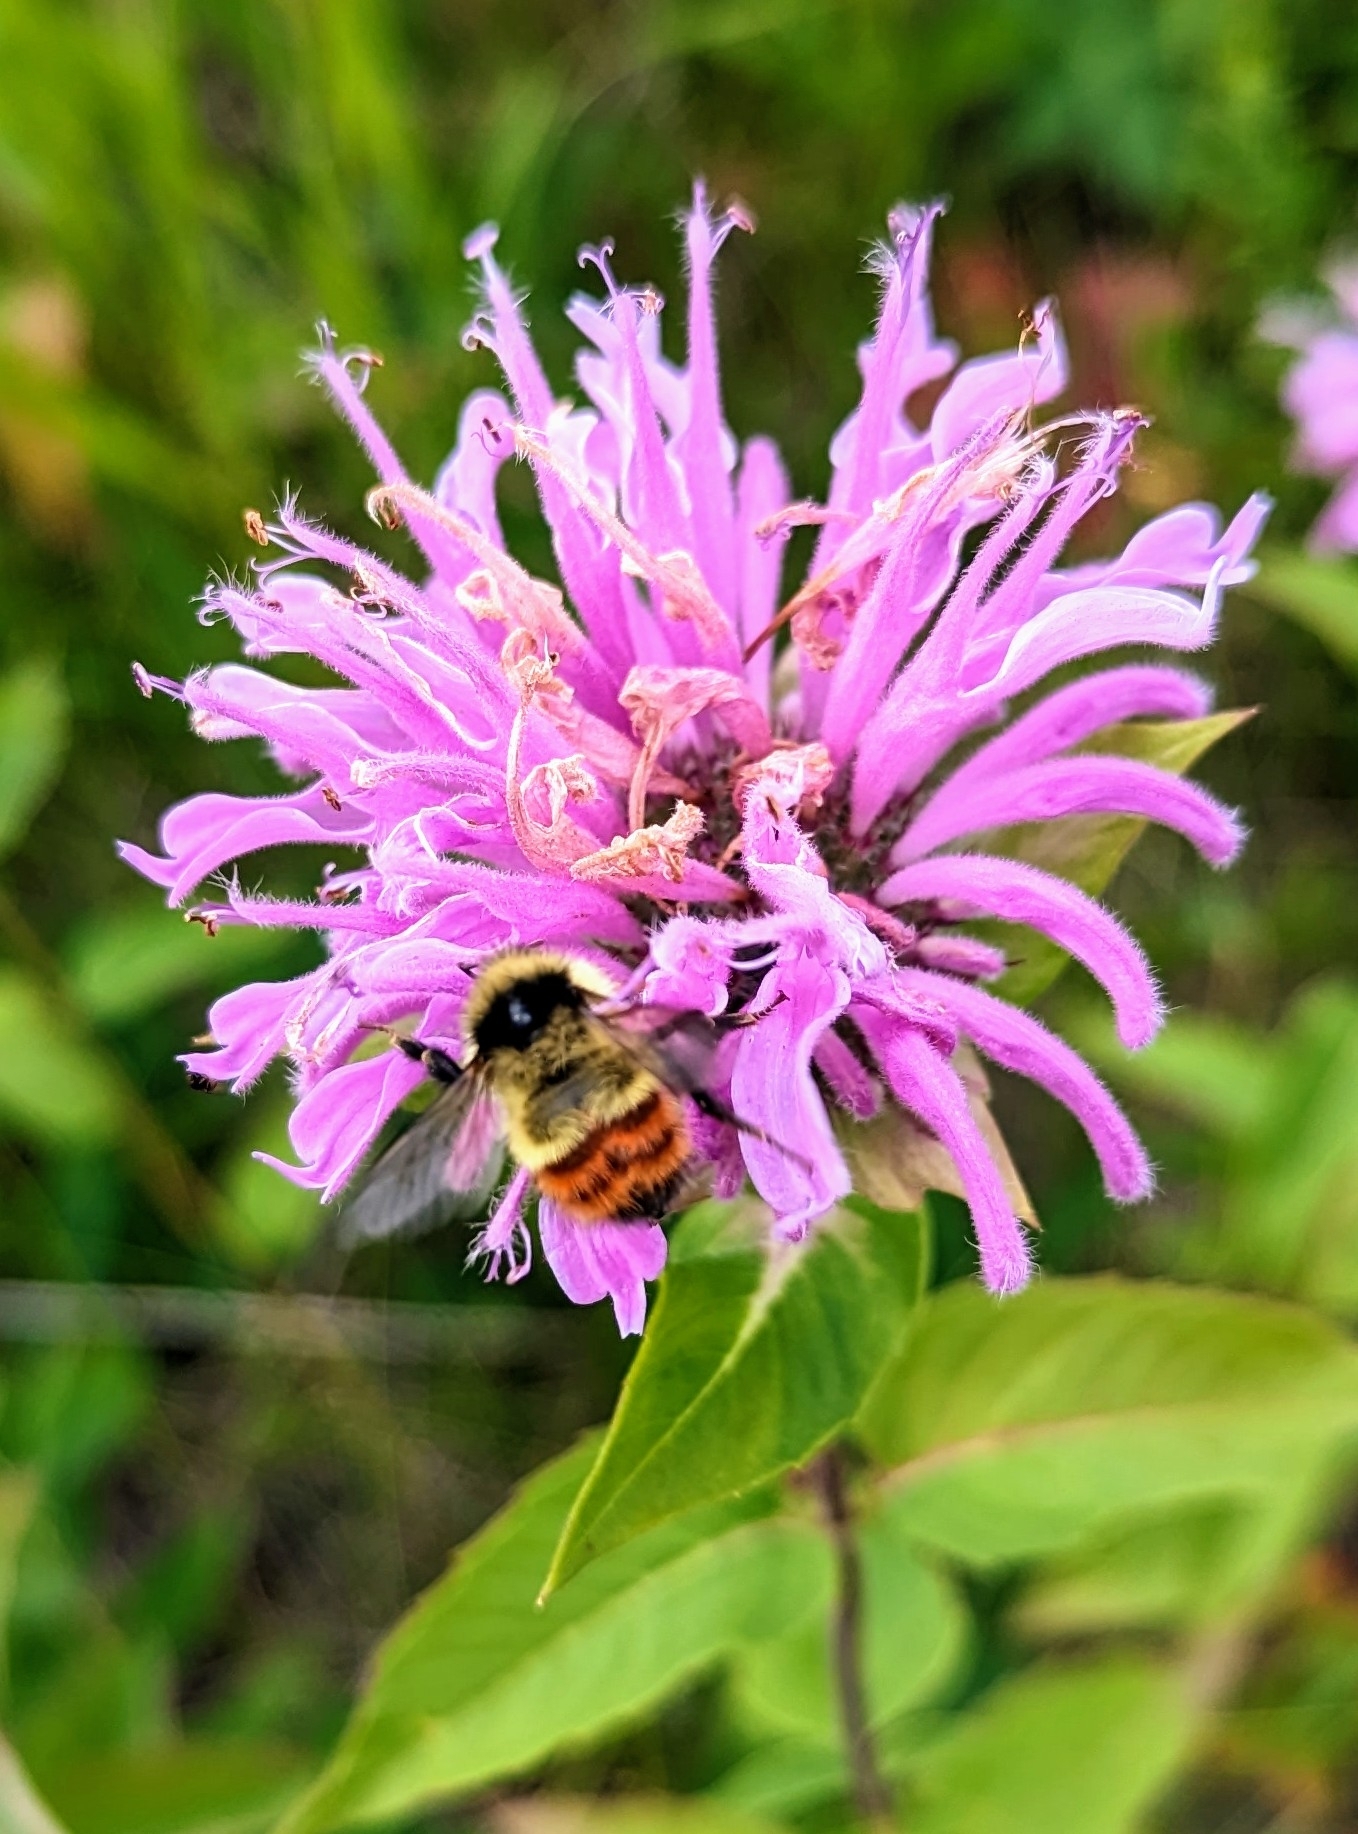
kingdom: Animalia
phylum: Arthropoda
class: Insecta
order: Hymenoptera
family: Apidae
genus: Bombus
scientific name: Bombus centralis
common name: Central bumble bee
